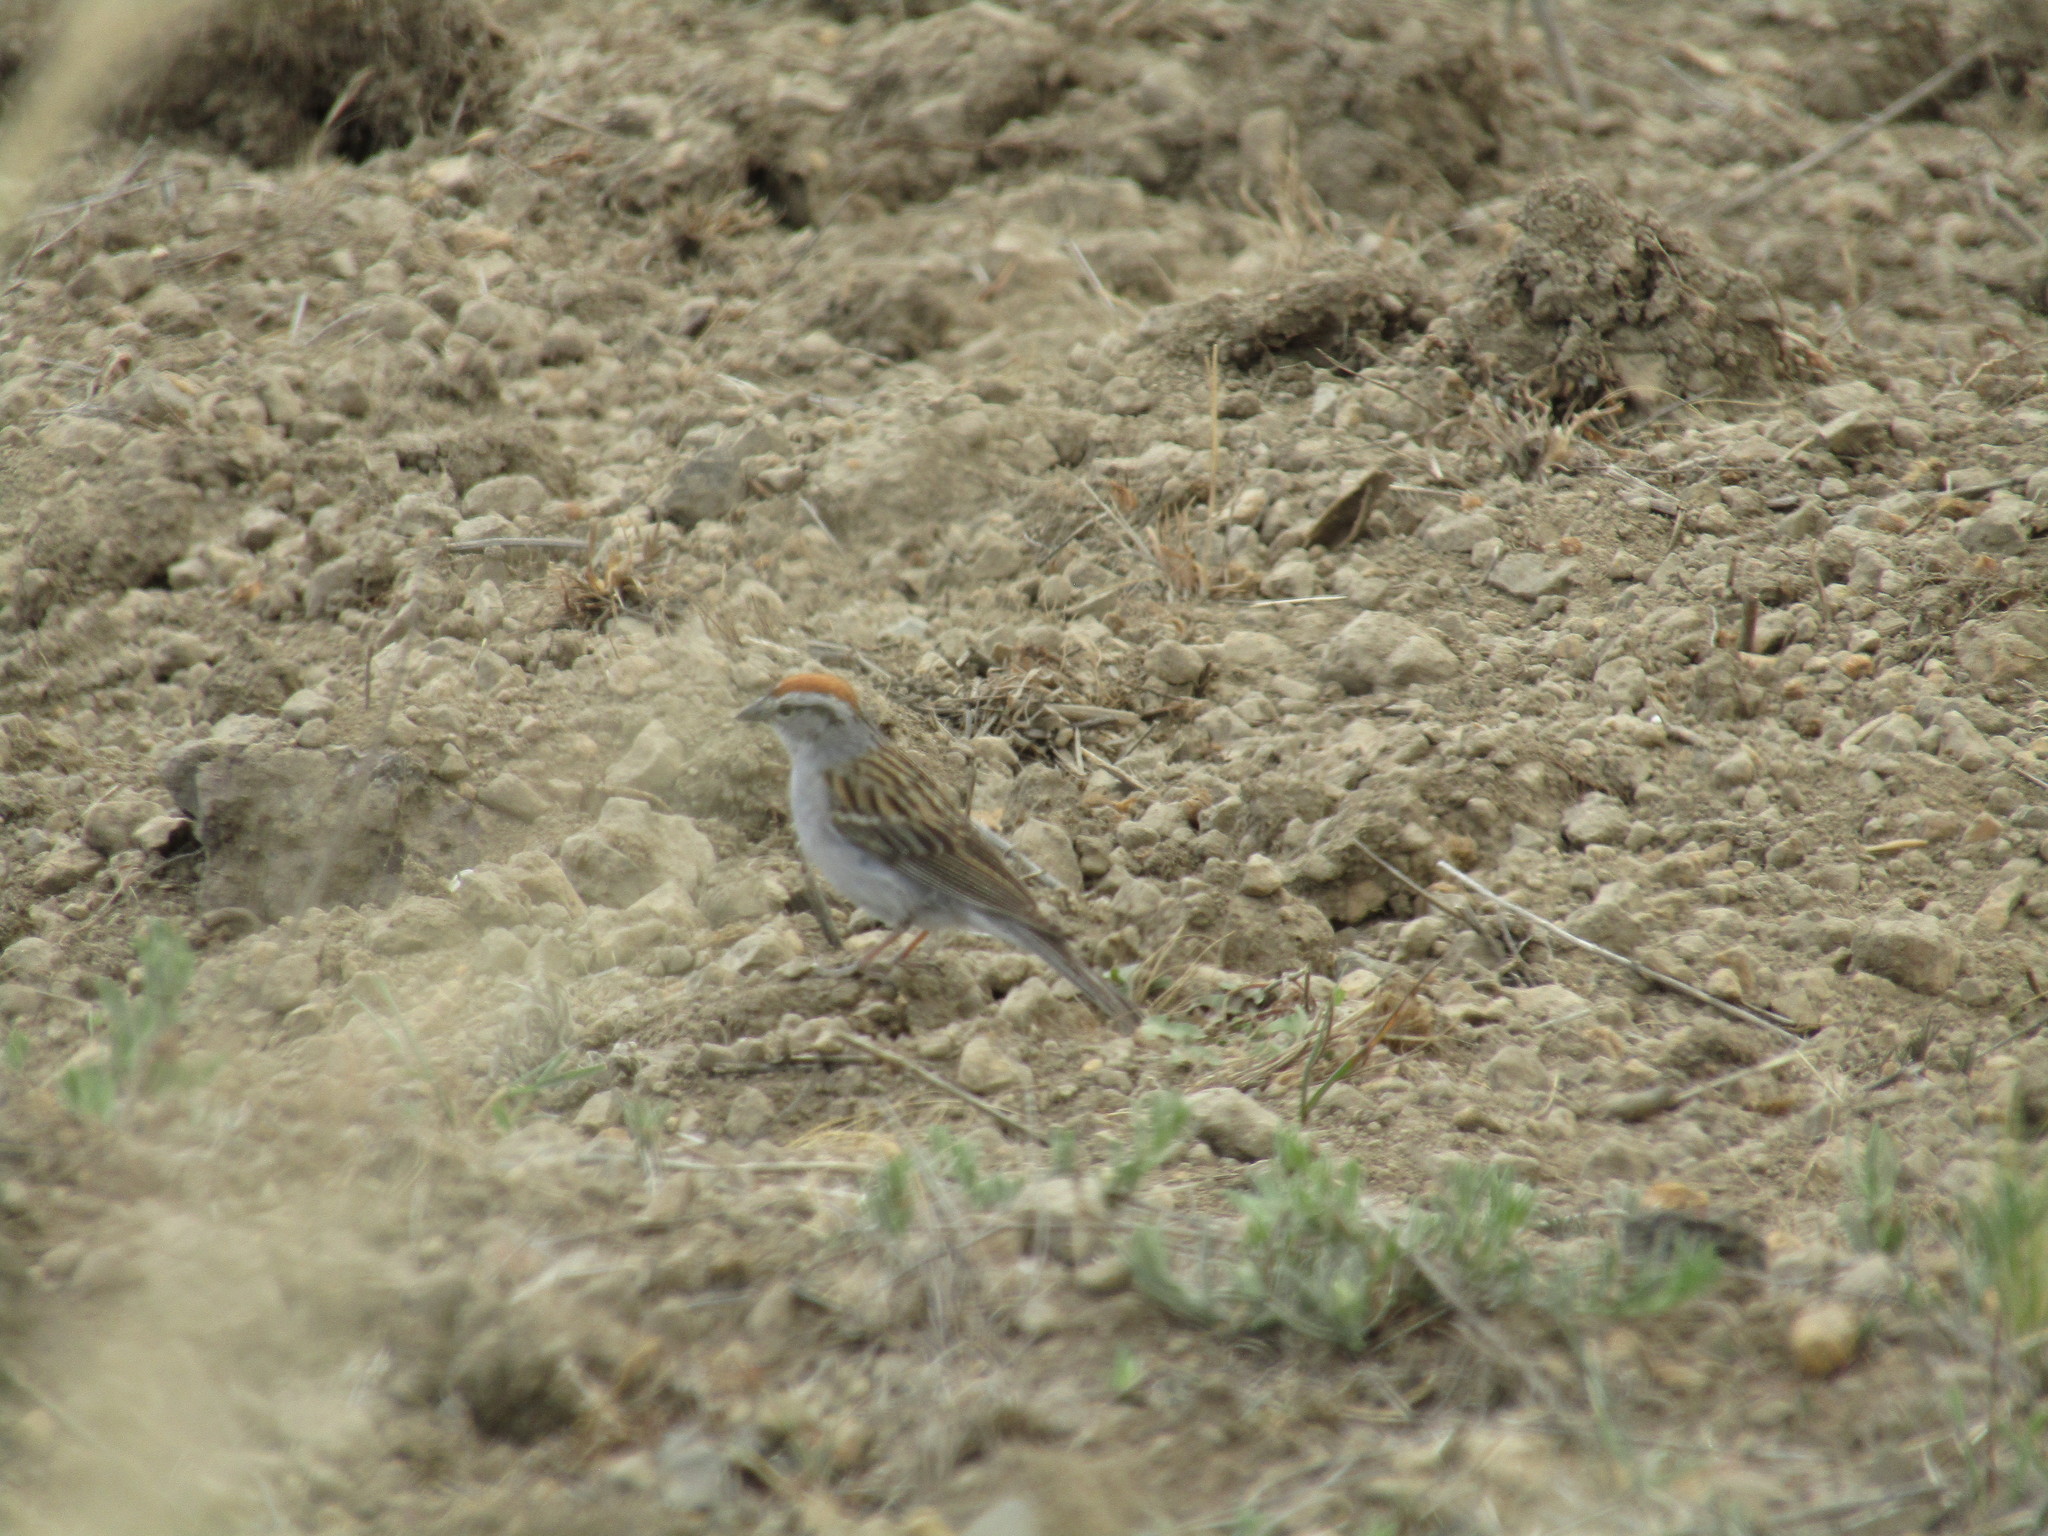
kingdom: Animalia
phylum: Chordata
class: Aves
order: Passeriformes
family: Passerellidae
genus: Spizella
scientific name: Spizella passerina
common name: Chipping sparrow
